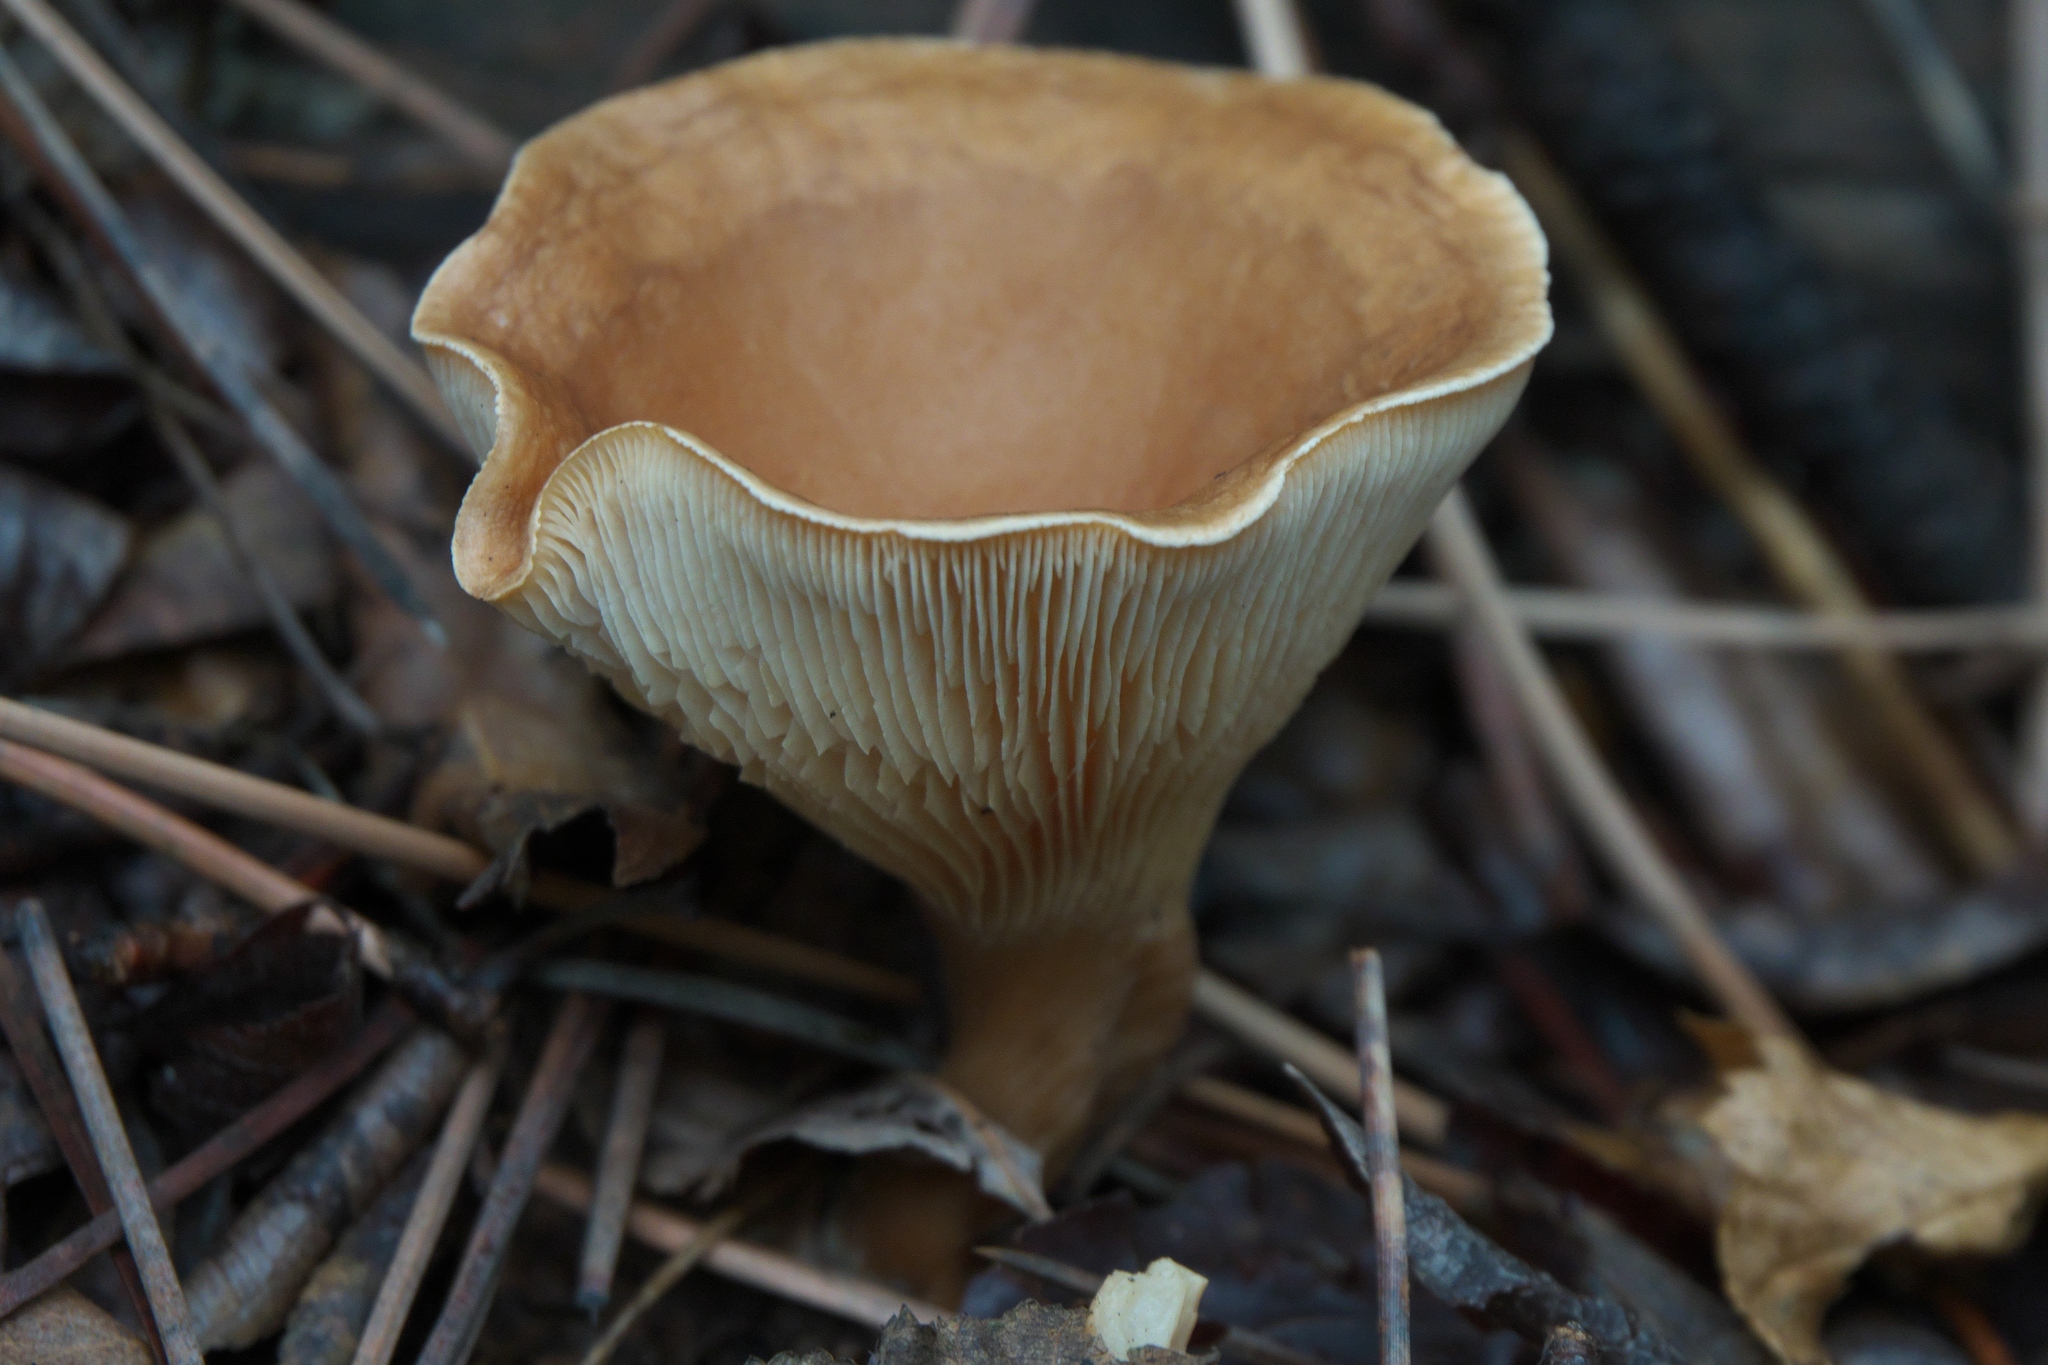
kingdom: Fungi
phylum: Basidiomycota
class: Agaricomycetes
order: Agaricales
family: Tricholomataceae
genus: Infundibulicybe
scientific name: Infundibulicybe gibba
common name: Common funnel
